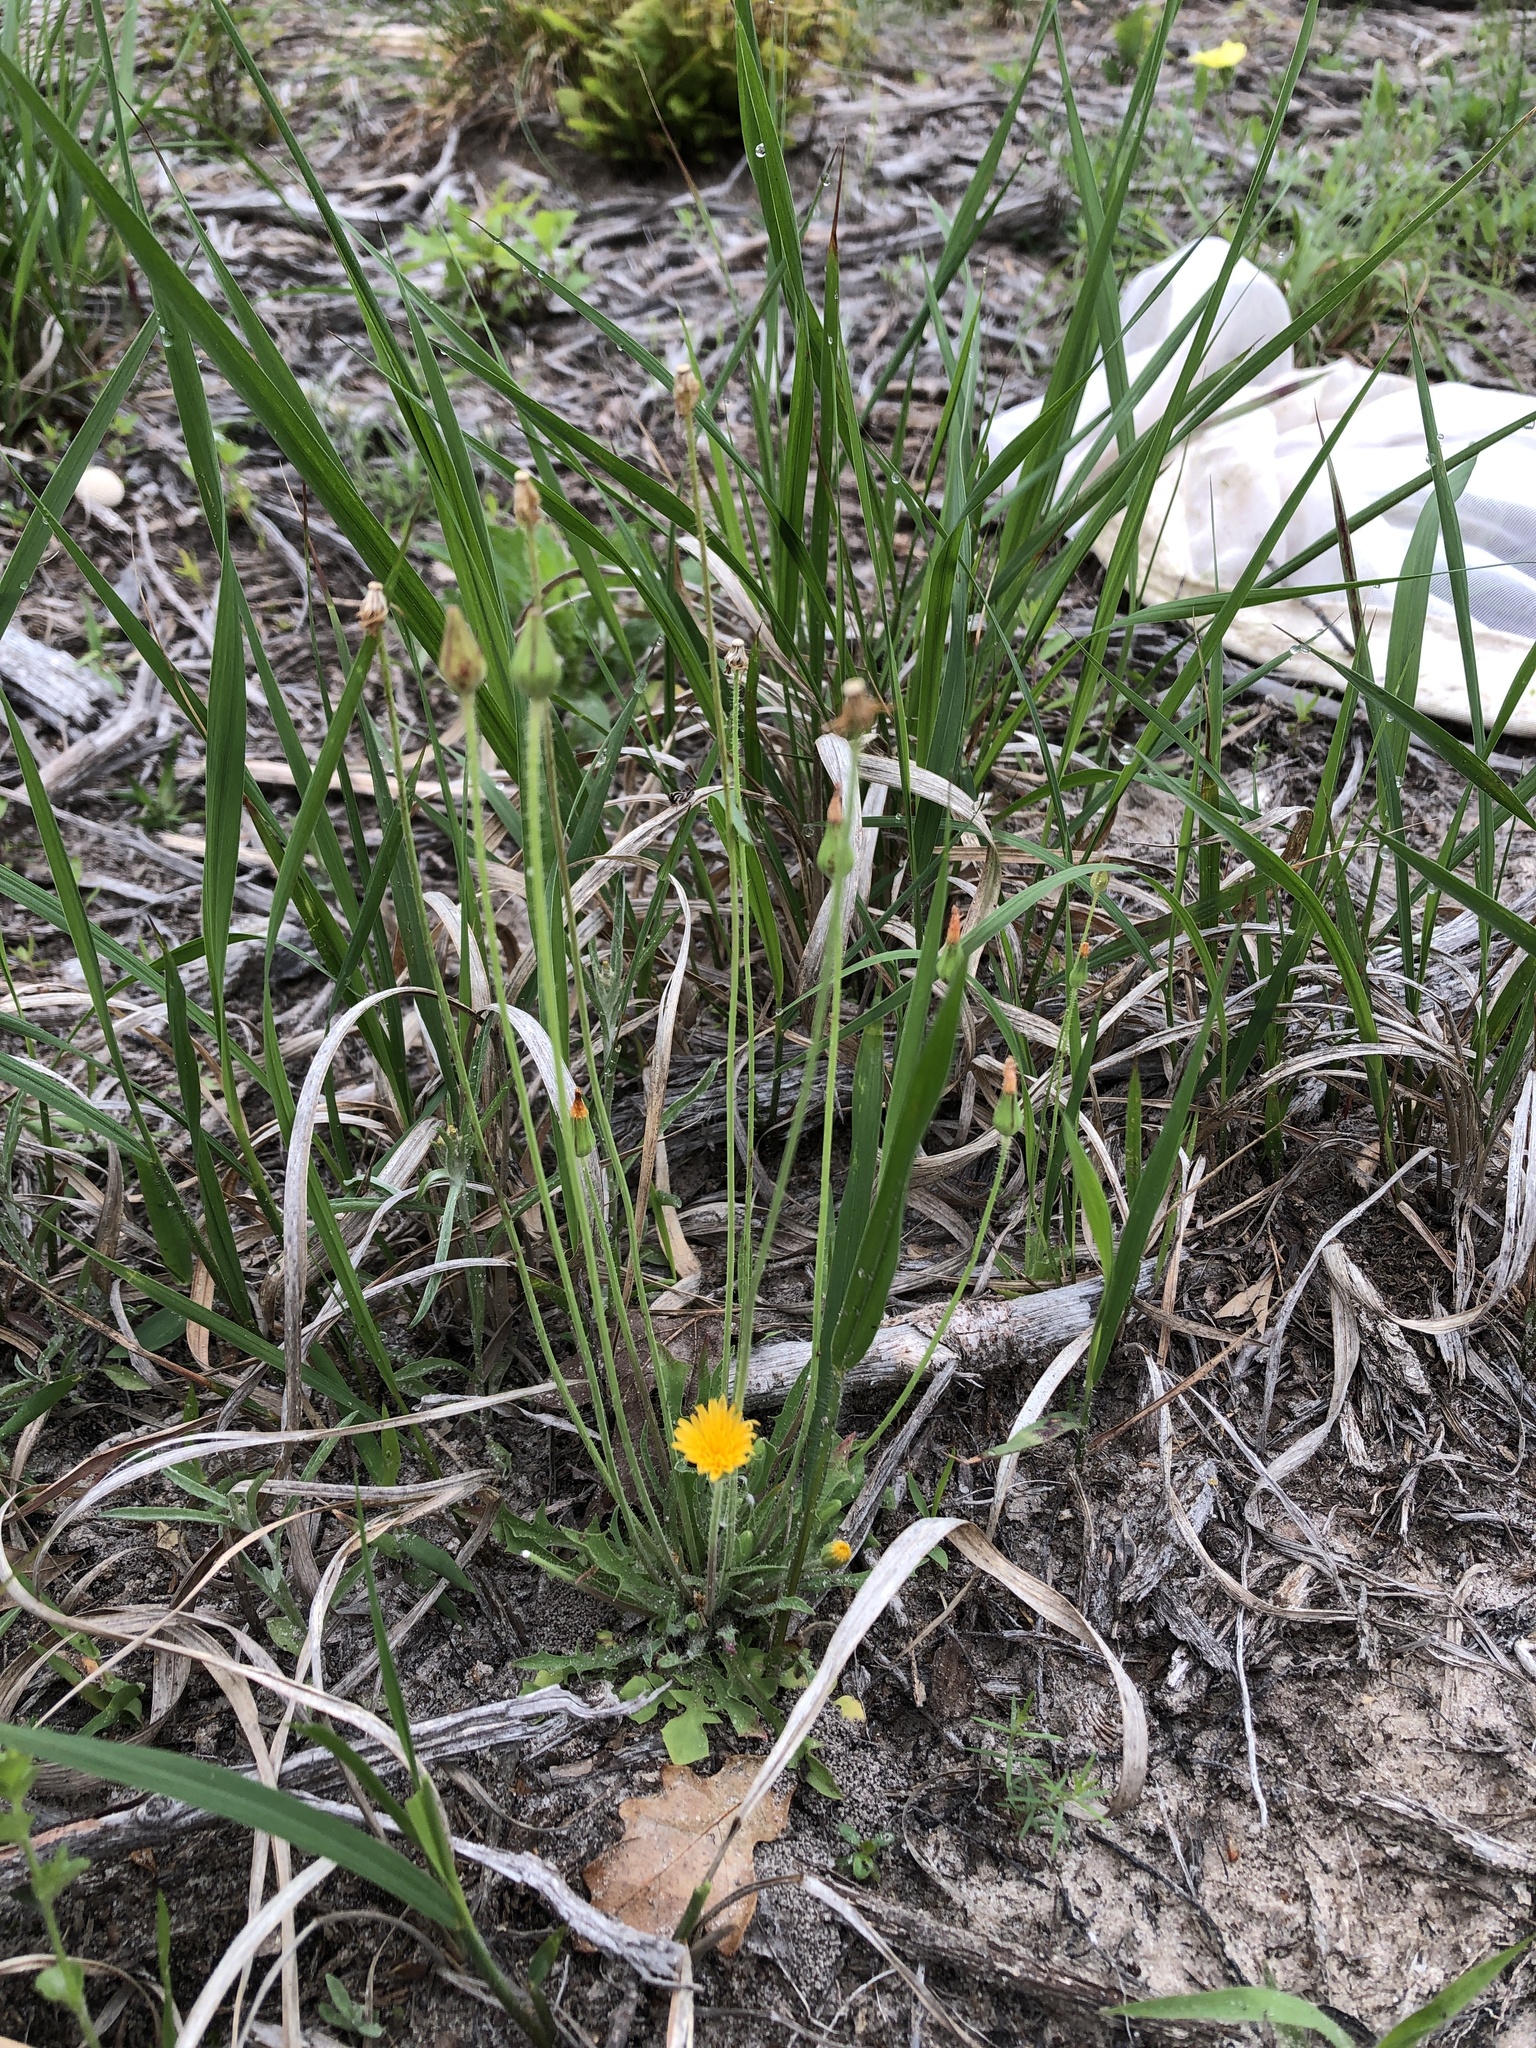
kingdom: Plantae
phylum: Tracheophyta
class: Magnoliopsida
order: Asterales
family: Asteraceae
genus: Krigia
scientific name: Krigia virginica
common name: Virginia dwarf-dandelion
